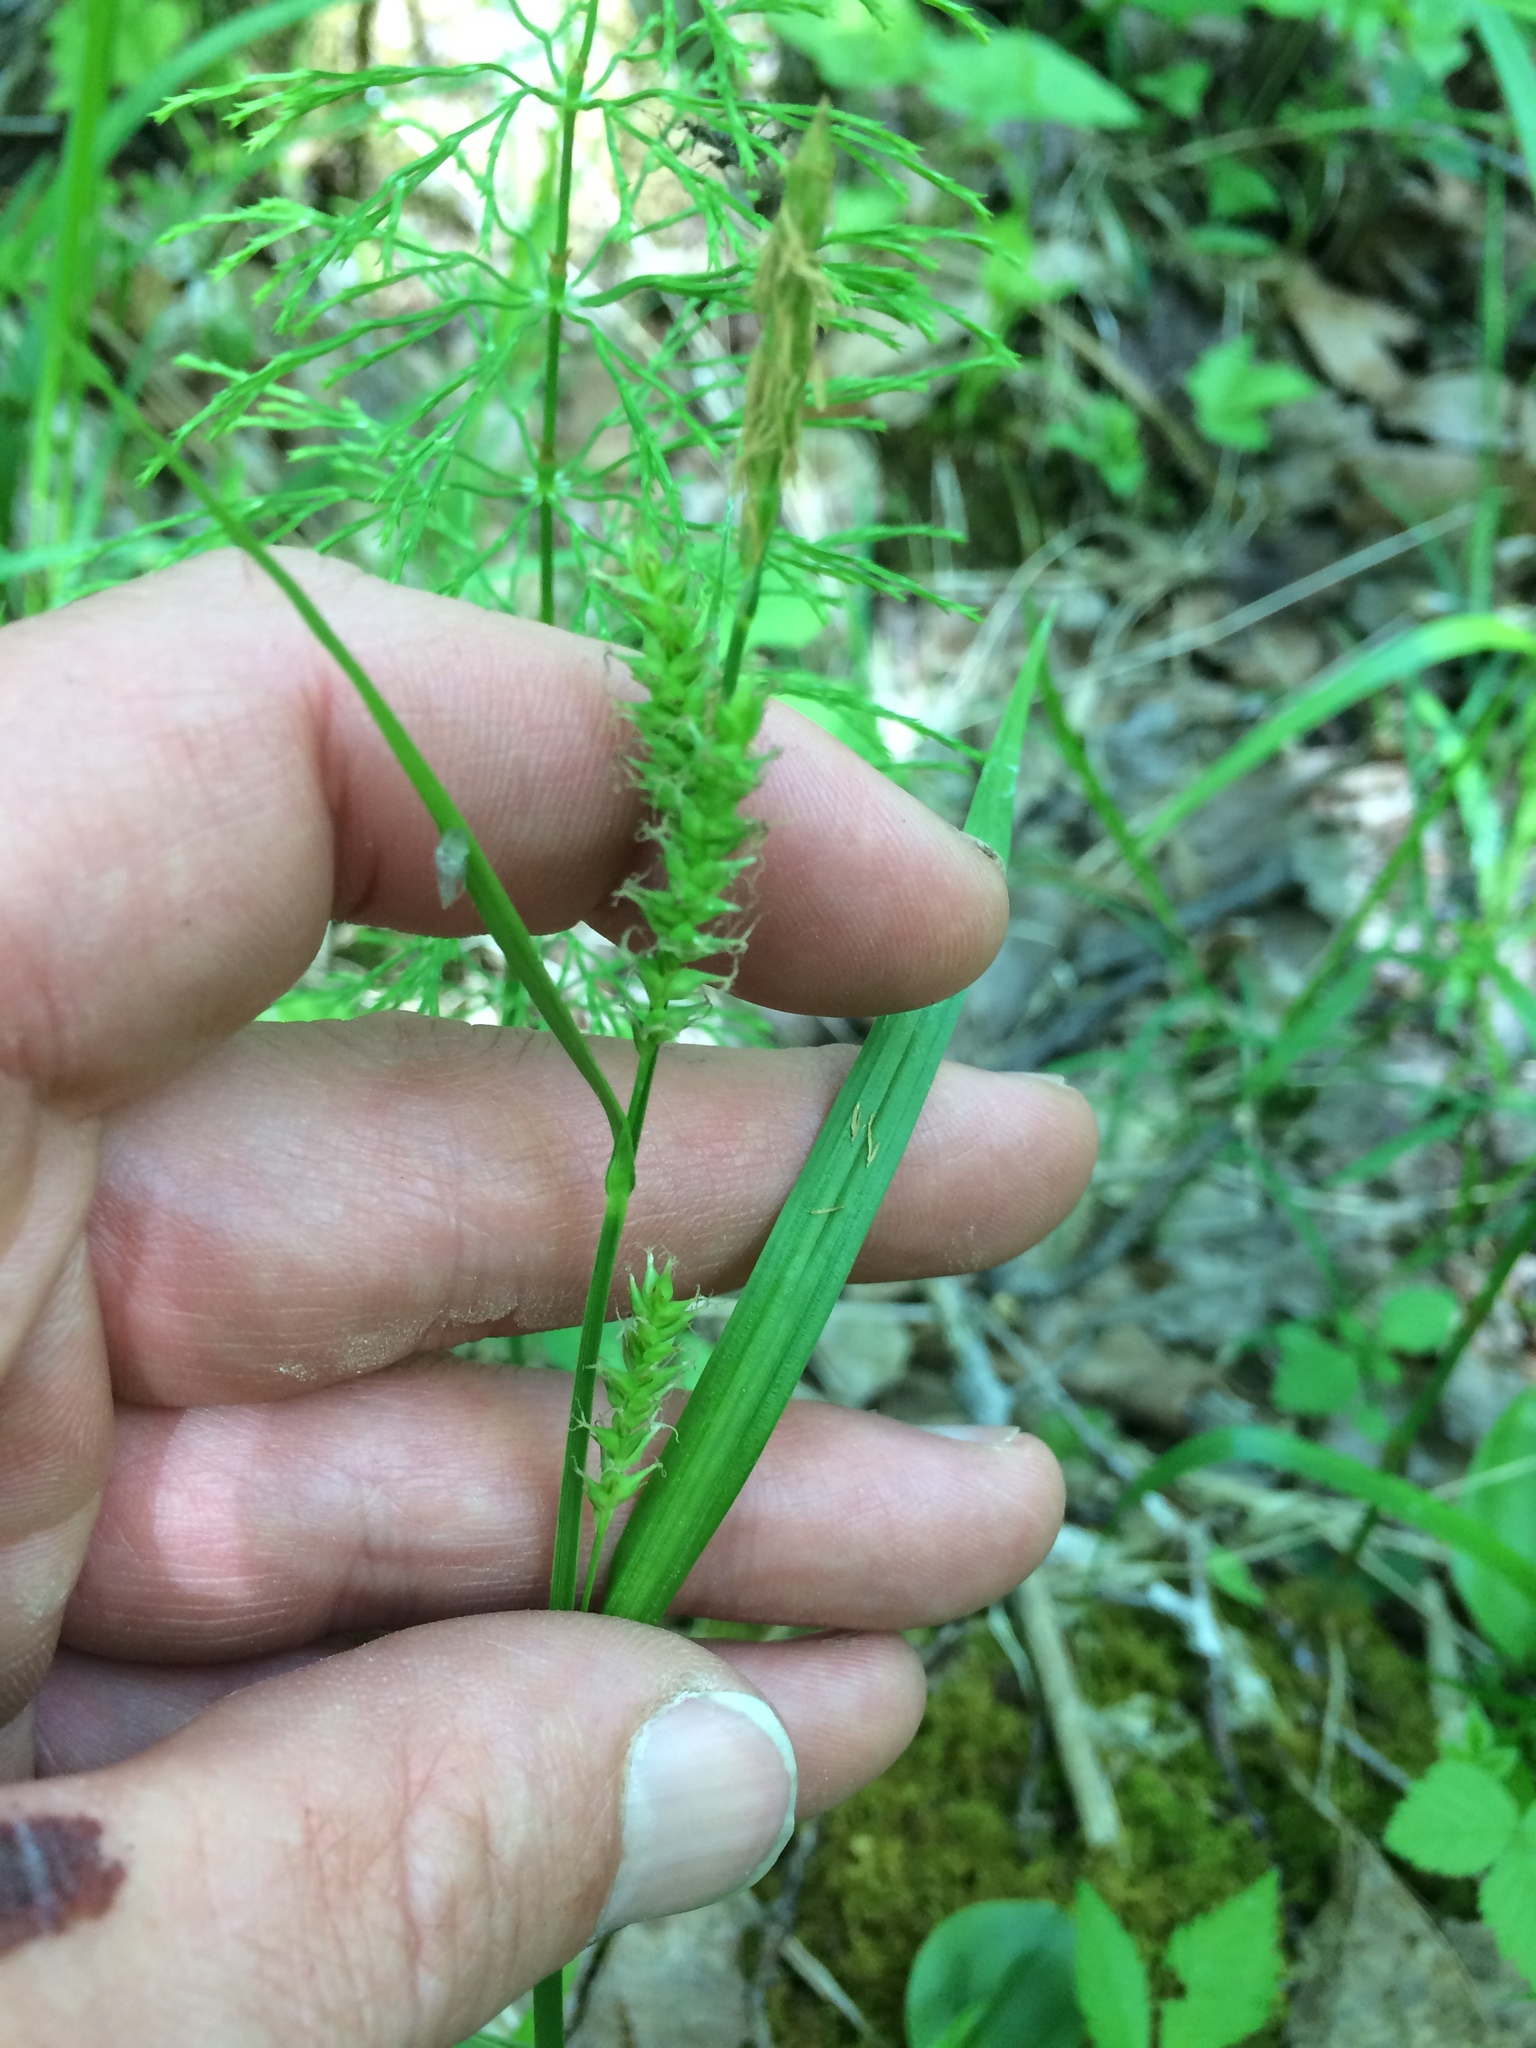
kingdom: Plantae
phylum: Tracheophyta
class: Liliopsida
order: Poales
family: Cyperaceae
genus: Carex
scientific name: Carex scabrata
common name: Eastern rough sedge
